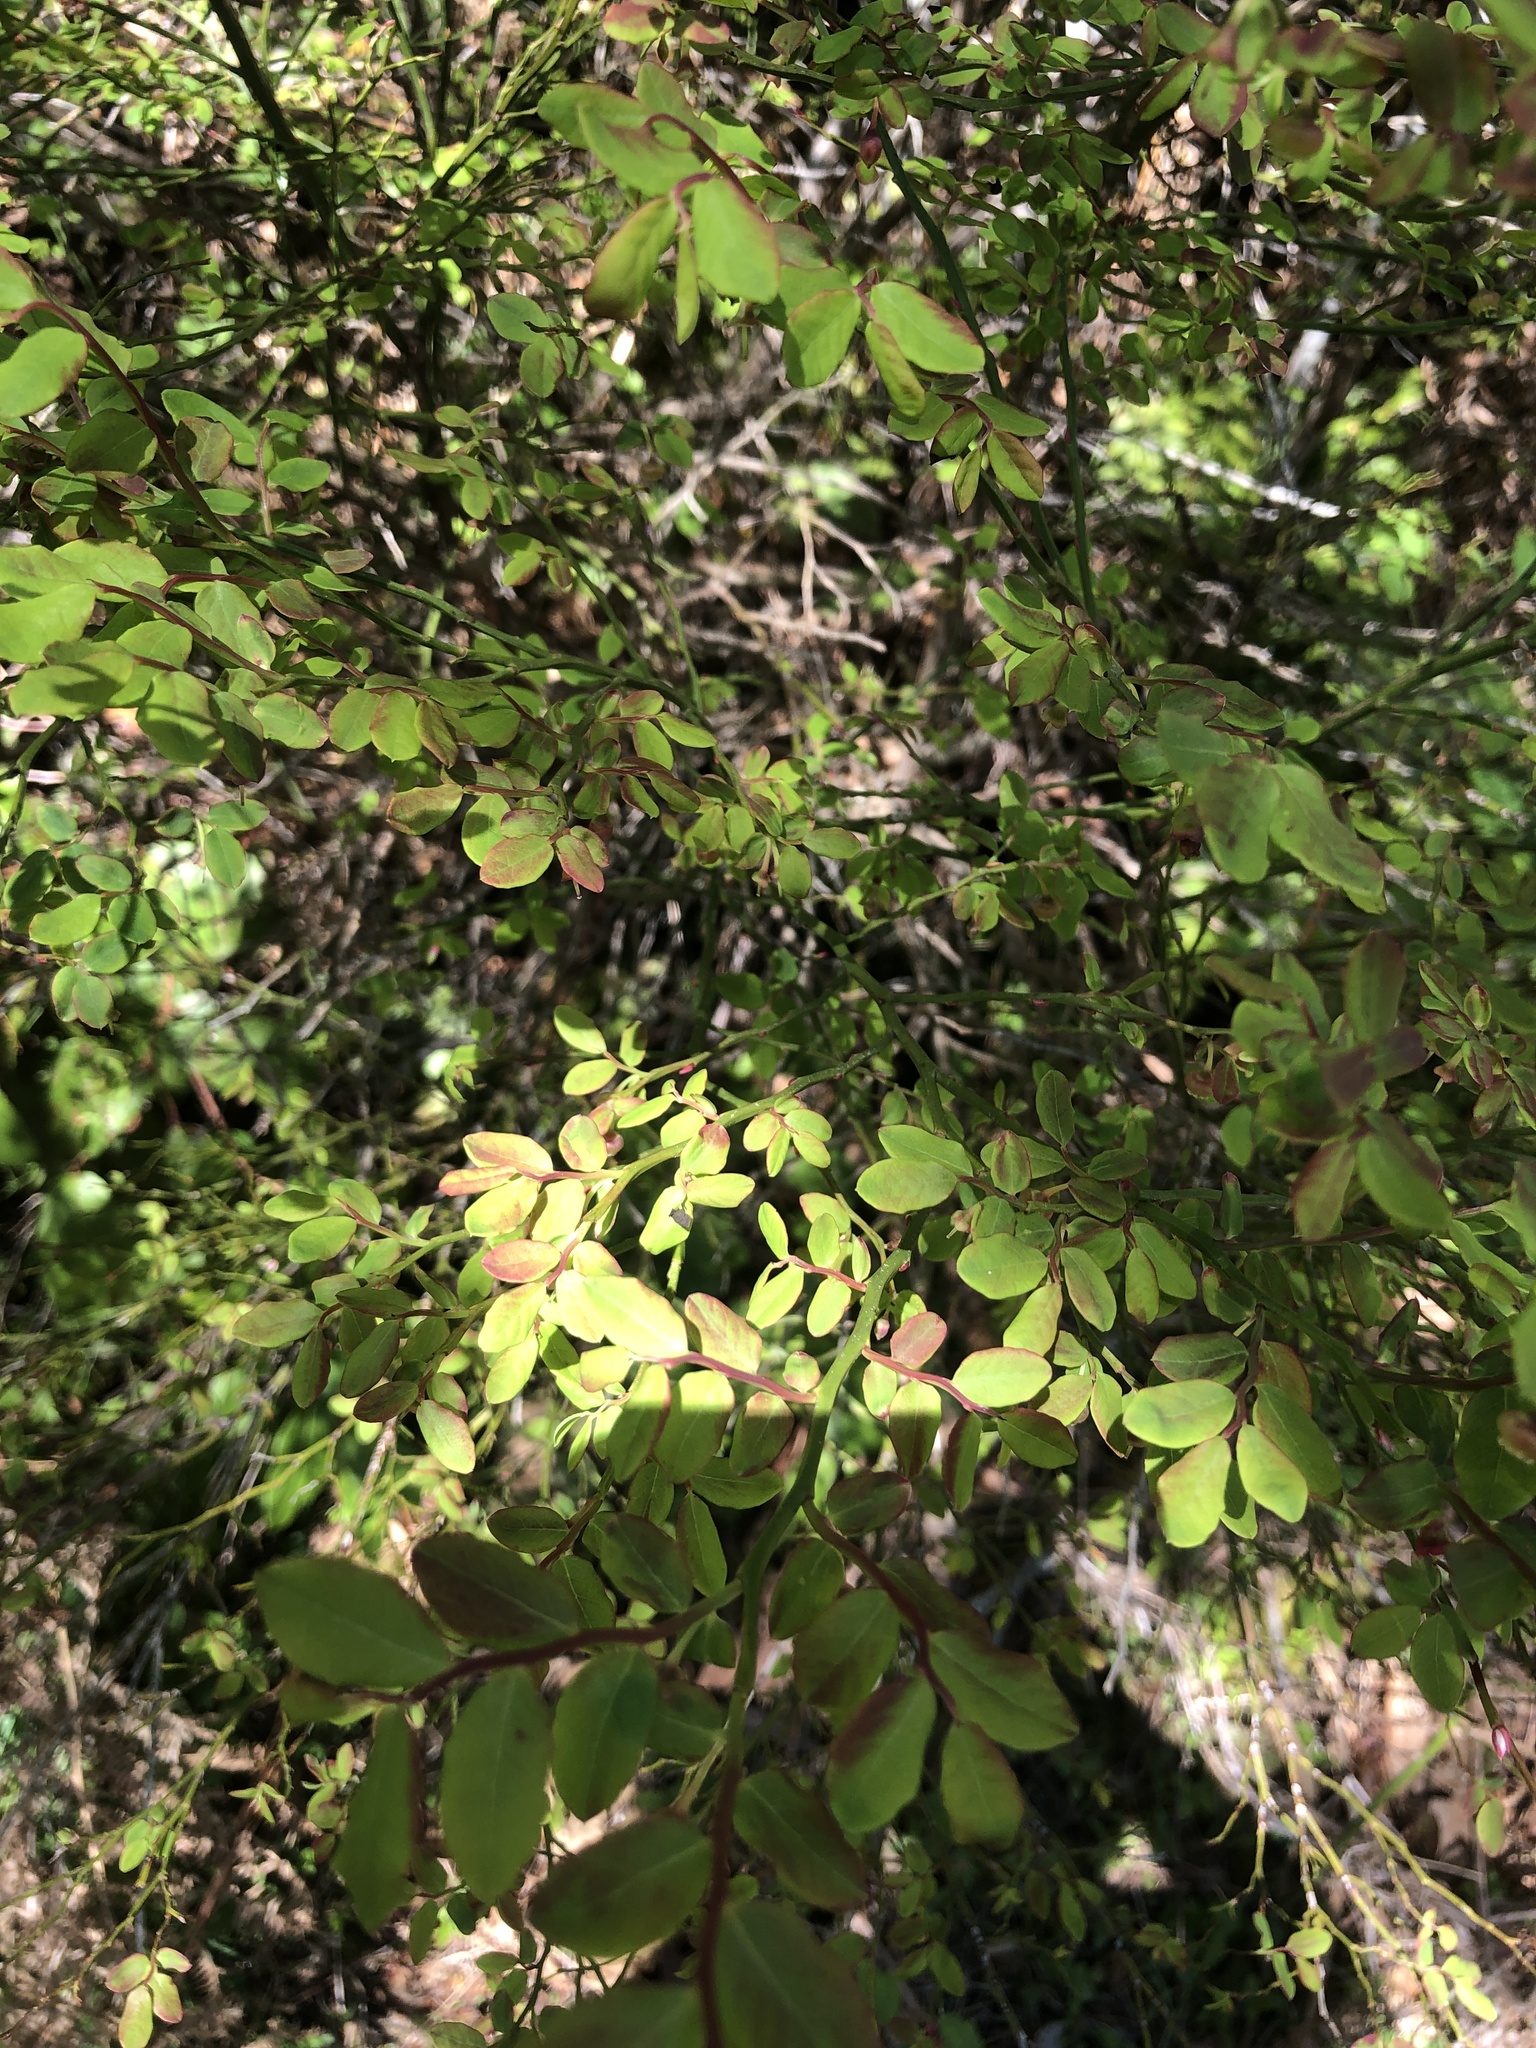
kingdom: Plantae
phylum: Tracheophyta
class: Magnoliopsida
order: Ericales
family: Ericaceae
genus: Vaccinium
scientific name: Vaccinium parvifolium
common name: Red-huckleberry
